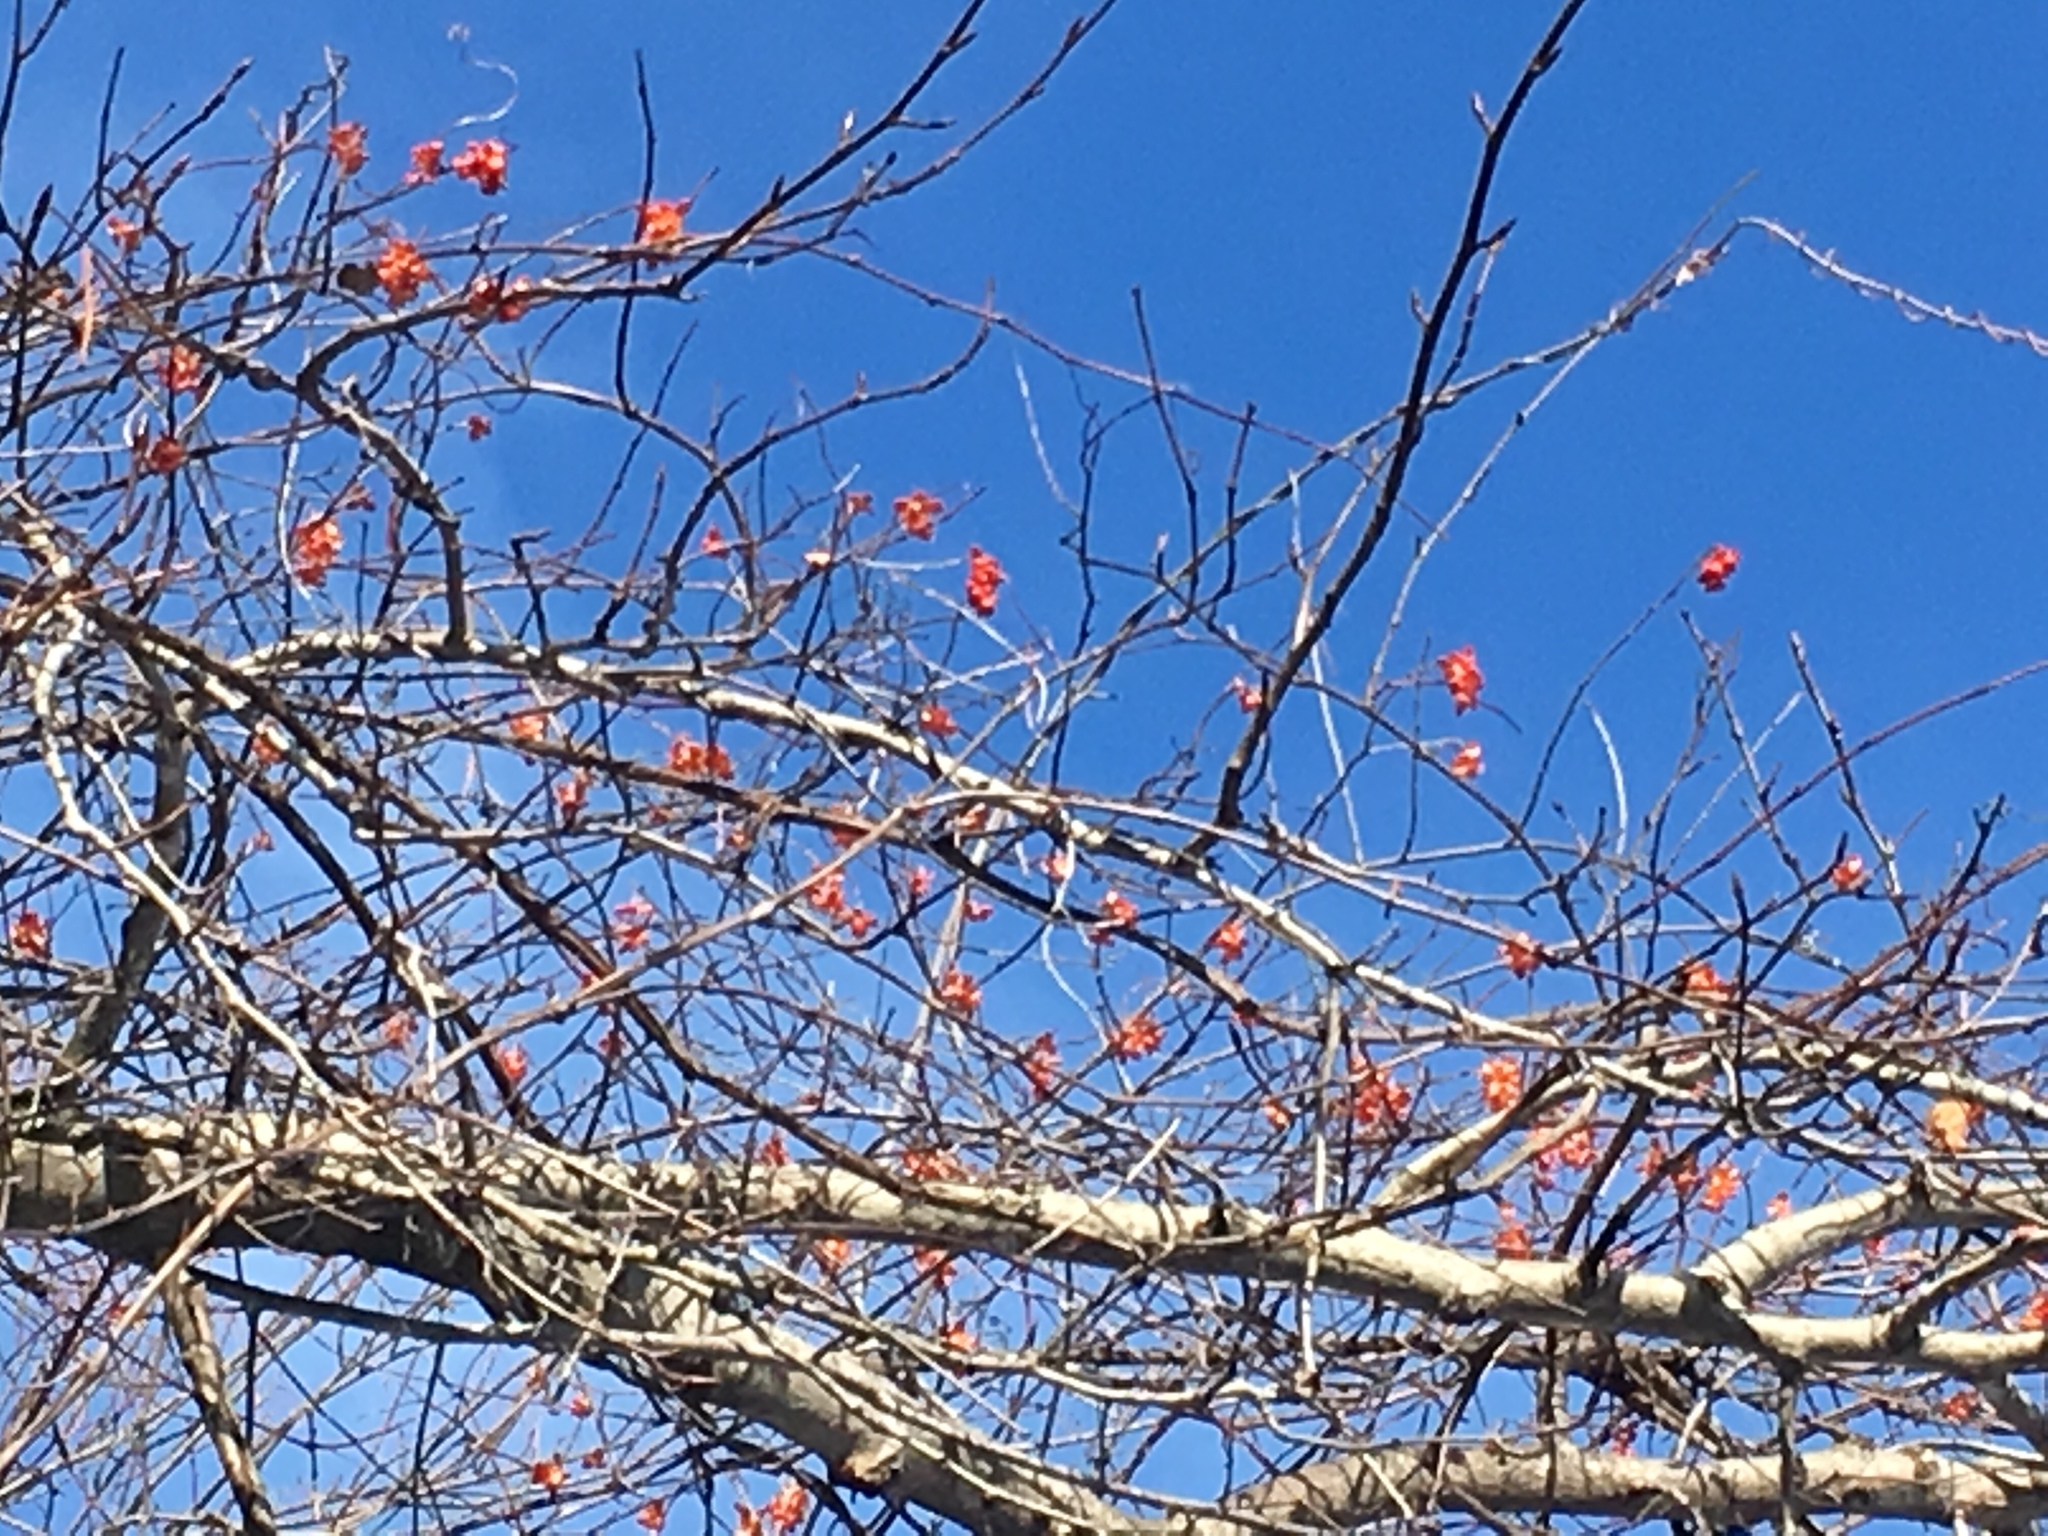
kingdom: Plantae
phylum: Tracheophyta
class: Magnoliopsida
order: Celastrales
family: Celastraceae
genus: Celastrus
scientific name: Celastrus scandens
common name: American bittersweet
